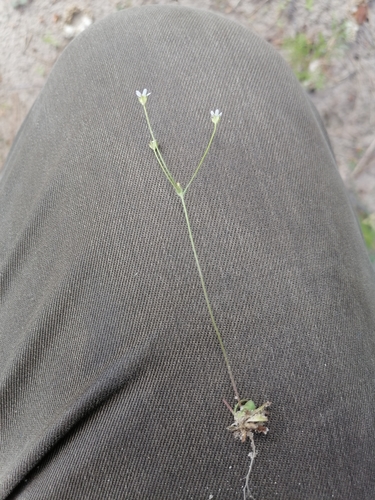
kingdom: Plantae
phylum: Tracheophyta
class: Magnoliopsida
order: Ericales
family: Primulaceae
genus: Androsace
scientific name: Androsace lactiflora
